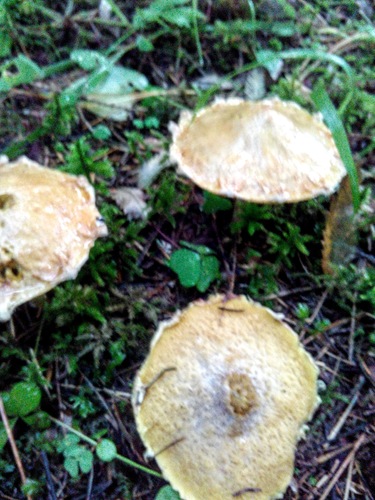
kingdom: Fungi
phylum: Basidiomycota
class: Agaricomycetes
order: Boletales
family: Suillaceae
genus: Suillus
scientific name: Suillus americanus
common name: Chicken fat mushroom
